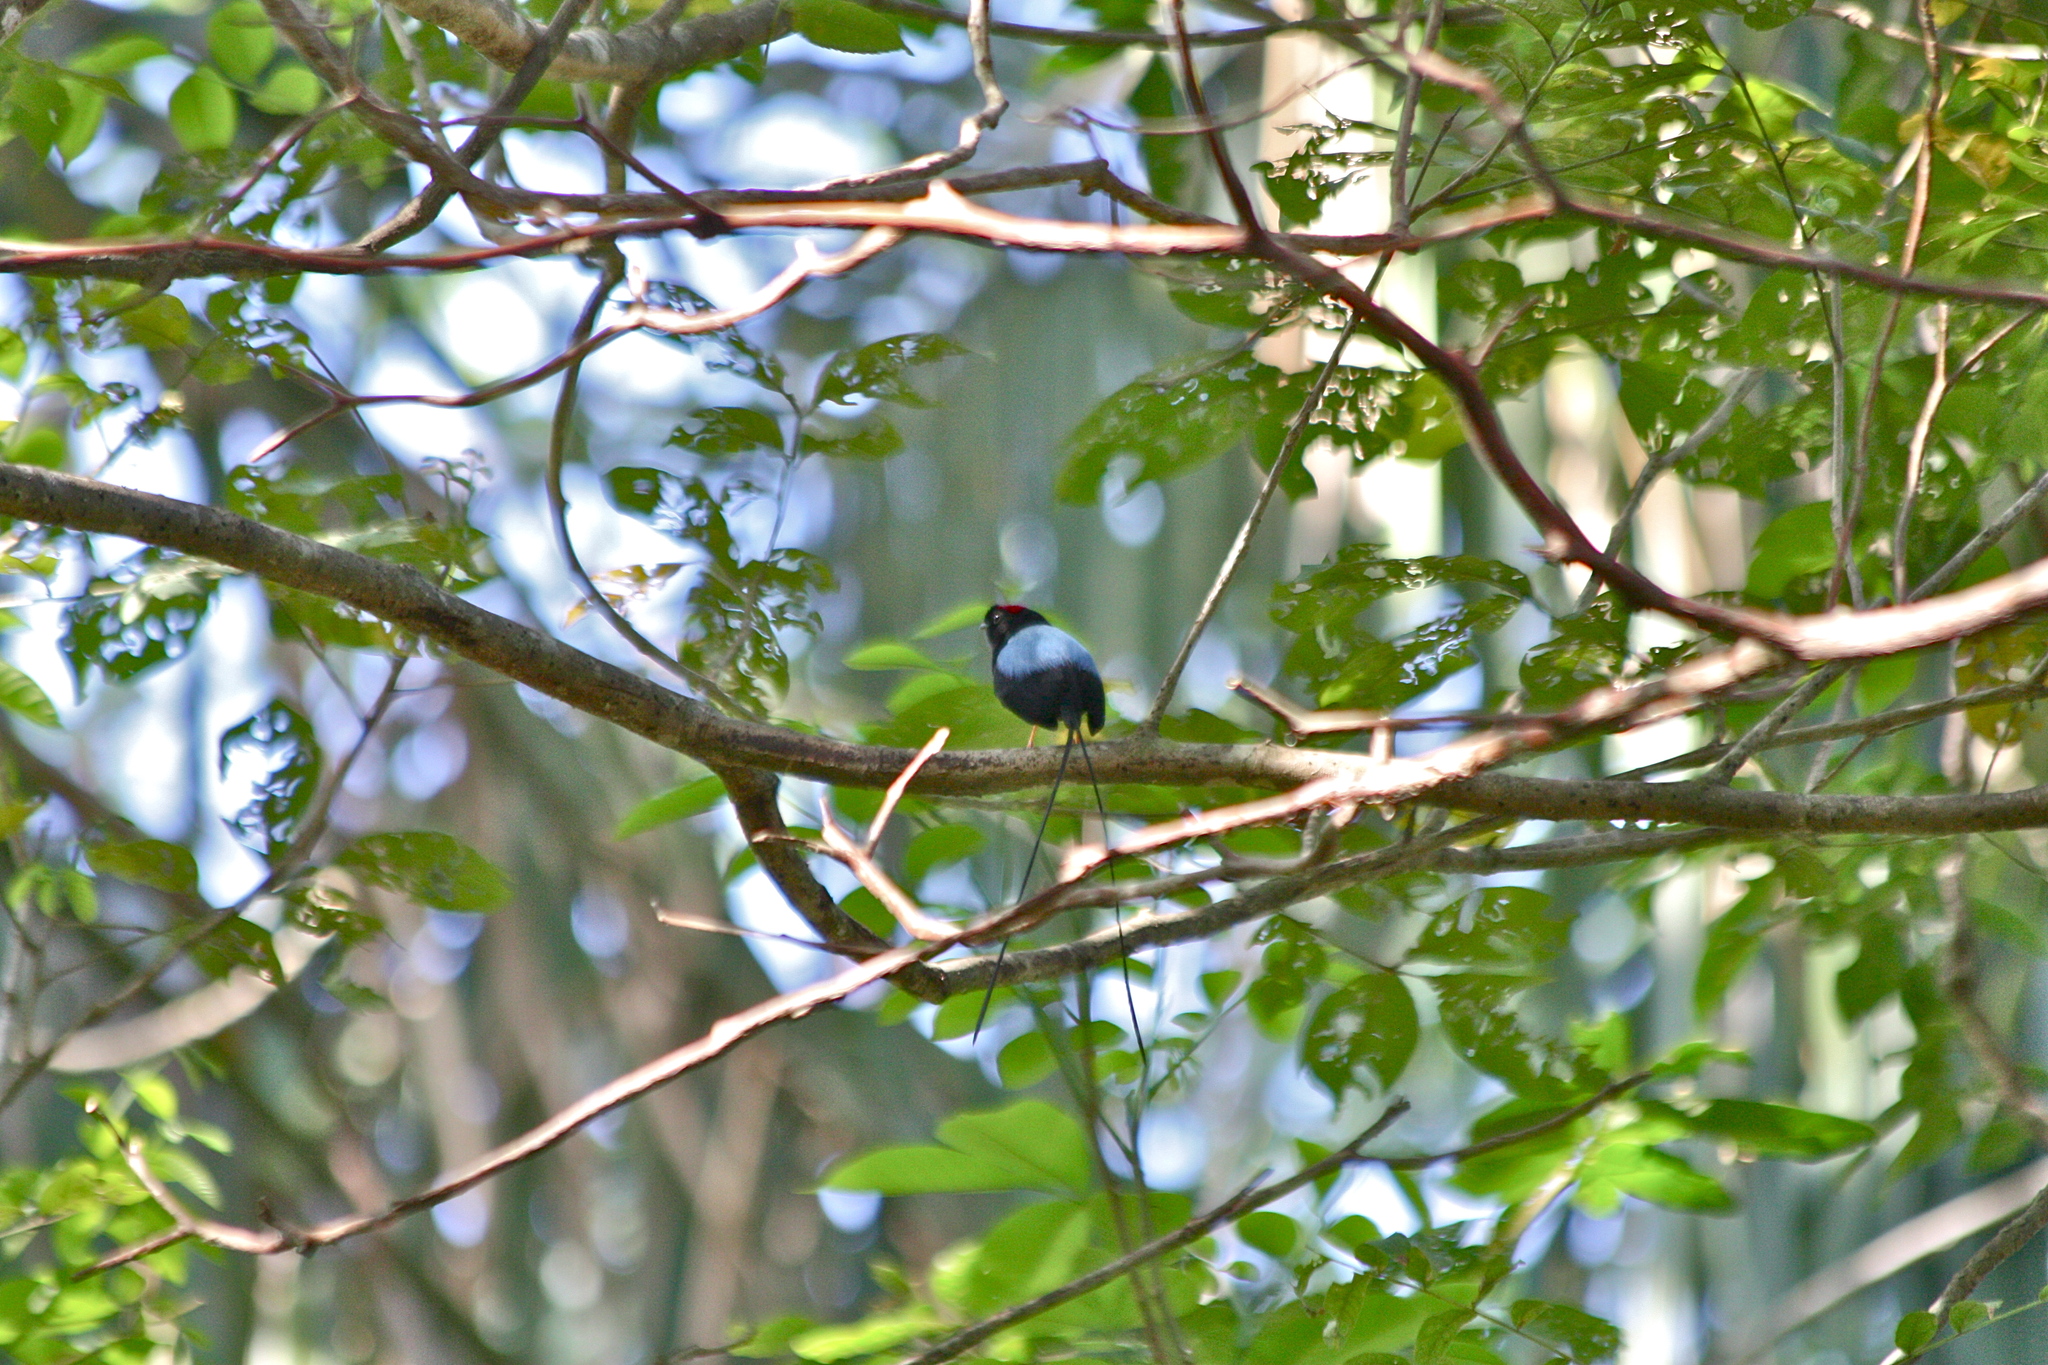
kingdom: Animalia
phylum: Chordata
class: Aves
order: Passeriformes
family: Pipridae
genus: Chiroxiphia
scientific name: Chiroxiphia linearis
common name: Long-tailed manakin
